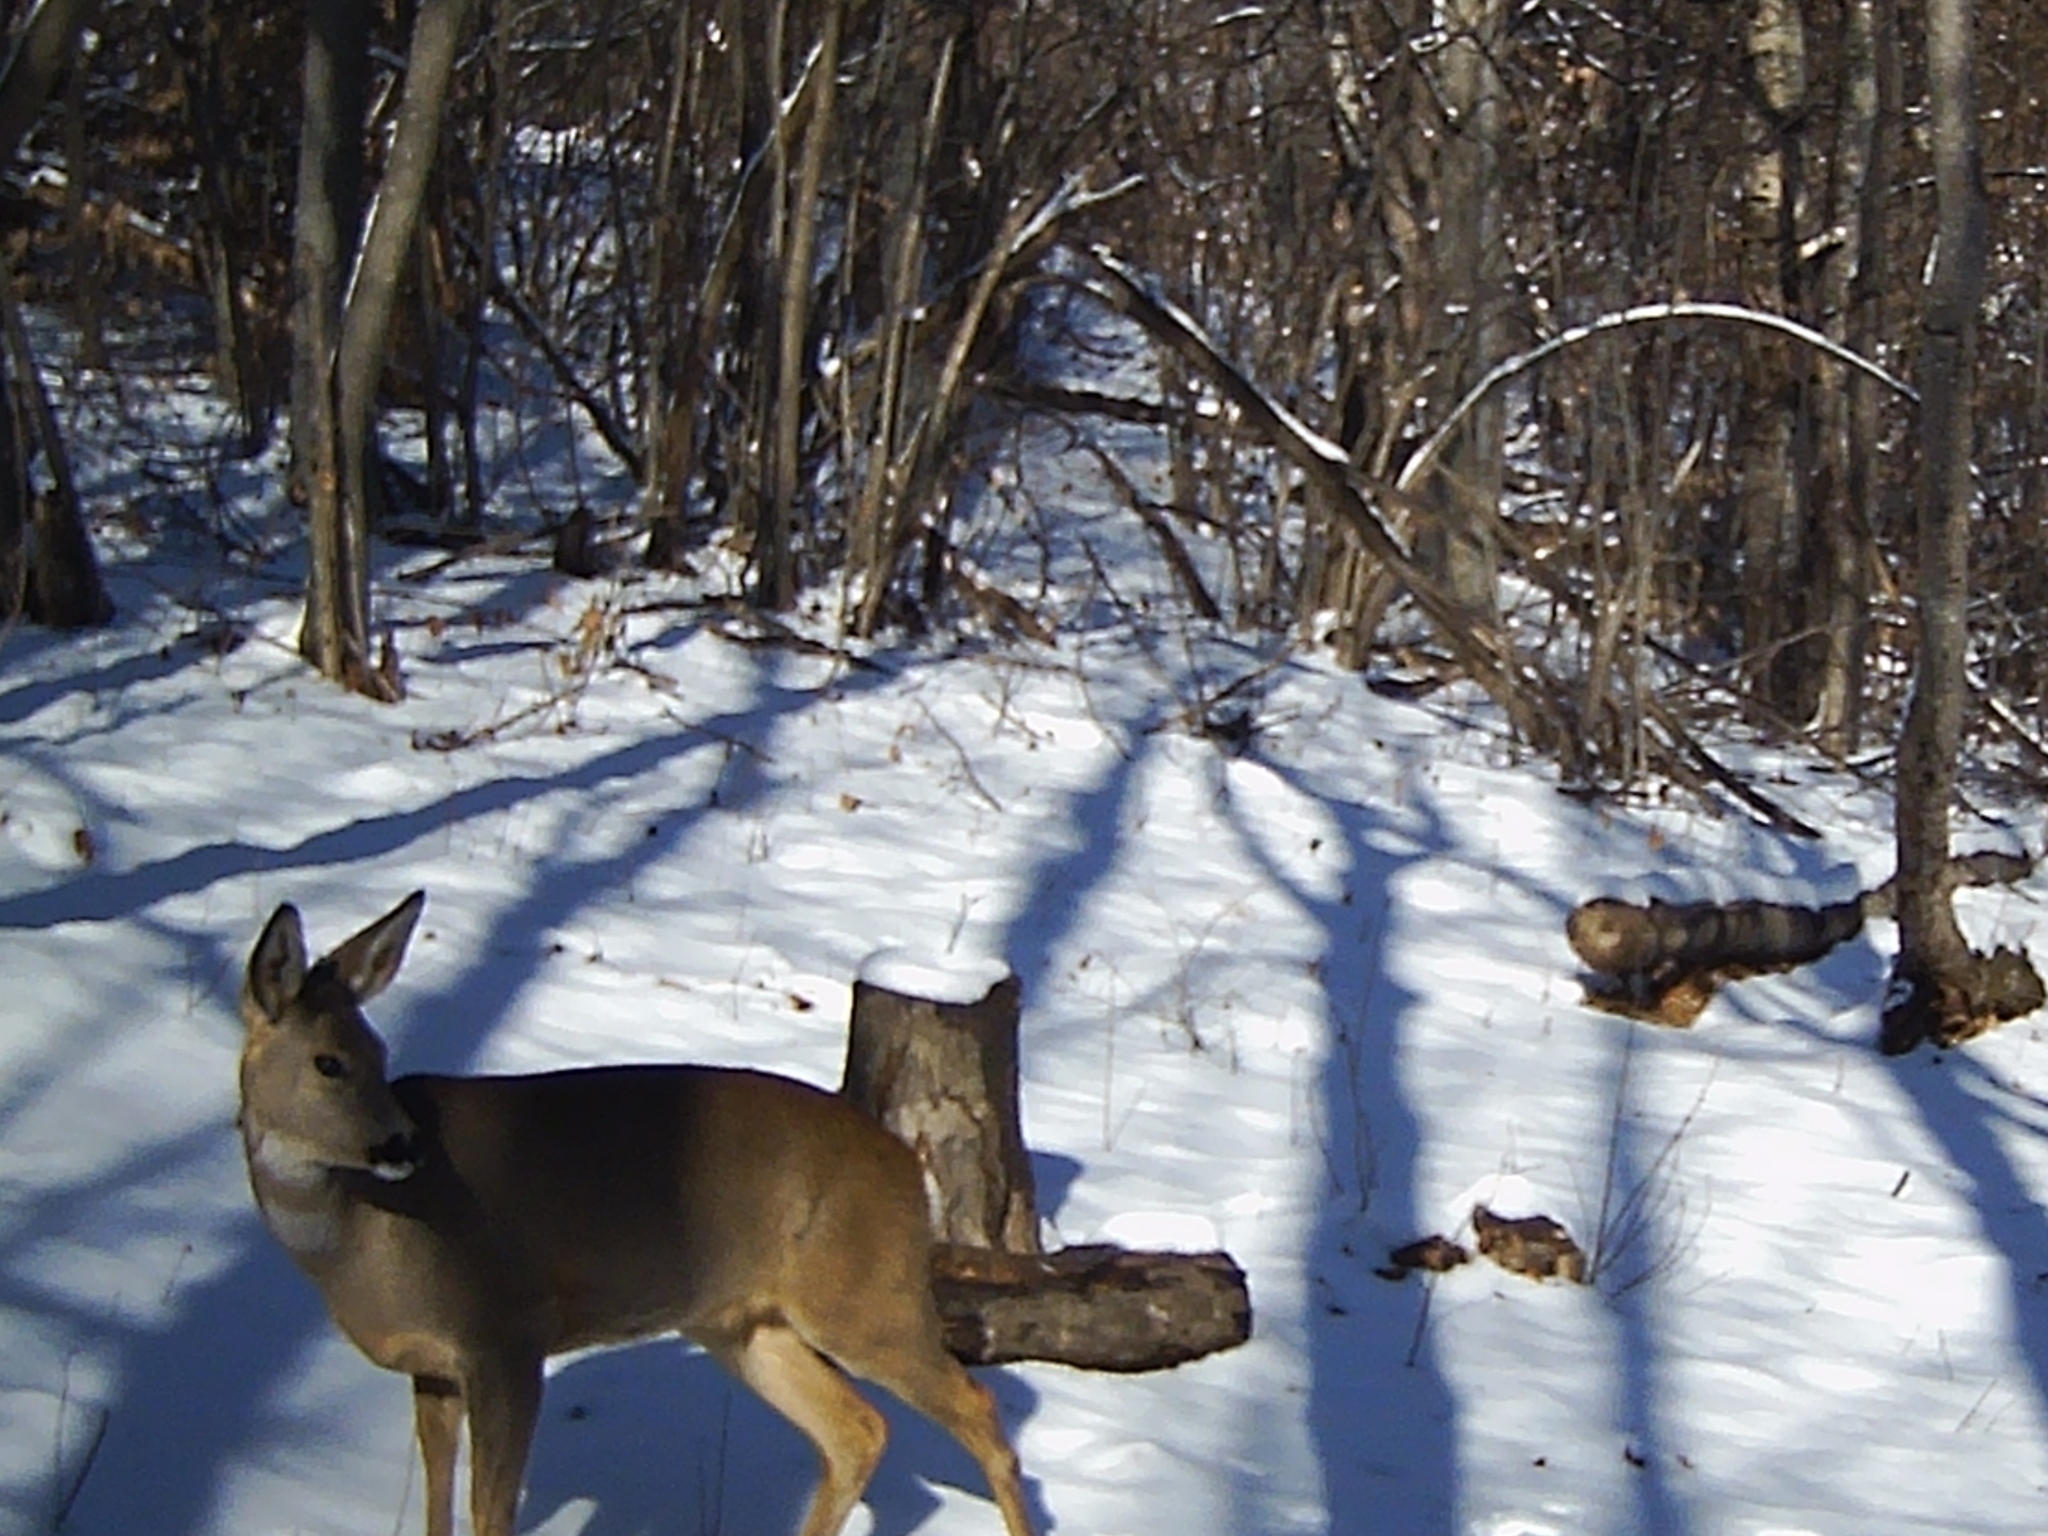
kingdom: Animalia
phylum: Chordata
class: Mammalia
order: Artiodactyla
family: Cervidae
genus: Capreolus
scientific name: Capreolus capreolus
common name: Western roe deer
